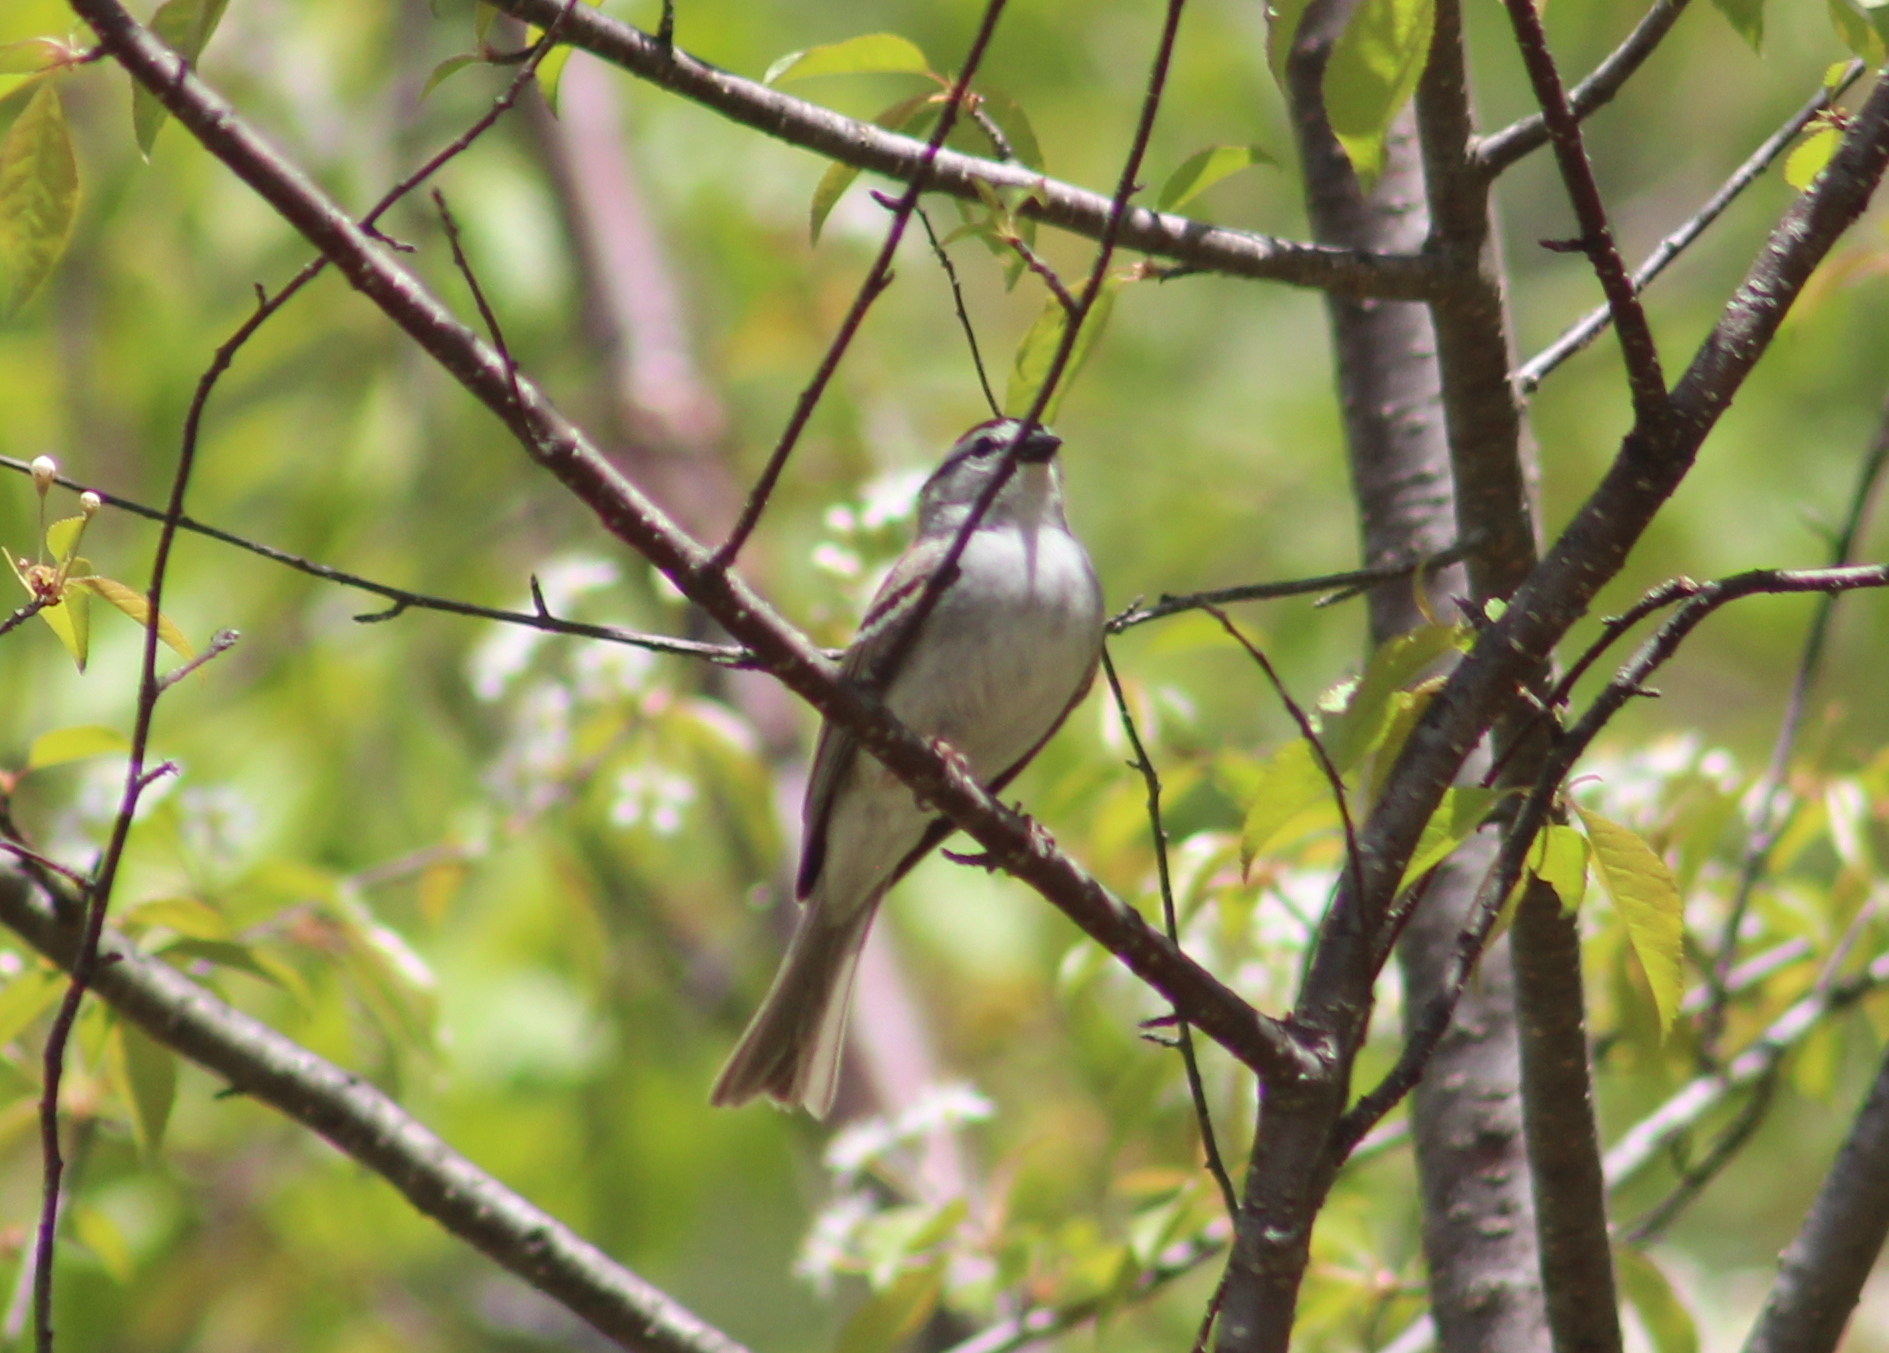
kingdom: Animalia
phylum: Chordata
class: Aves
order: Passeriformes
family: Passerellidae
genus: Spizella
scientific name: Spizella passerina
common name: Chipping sparrow
